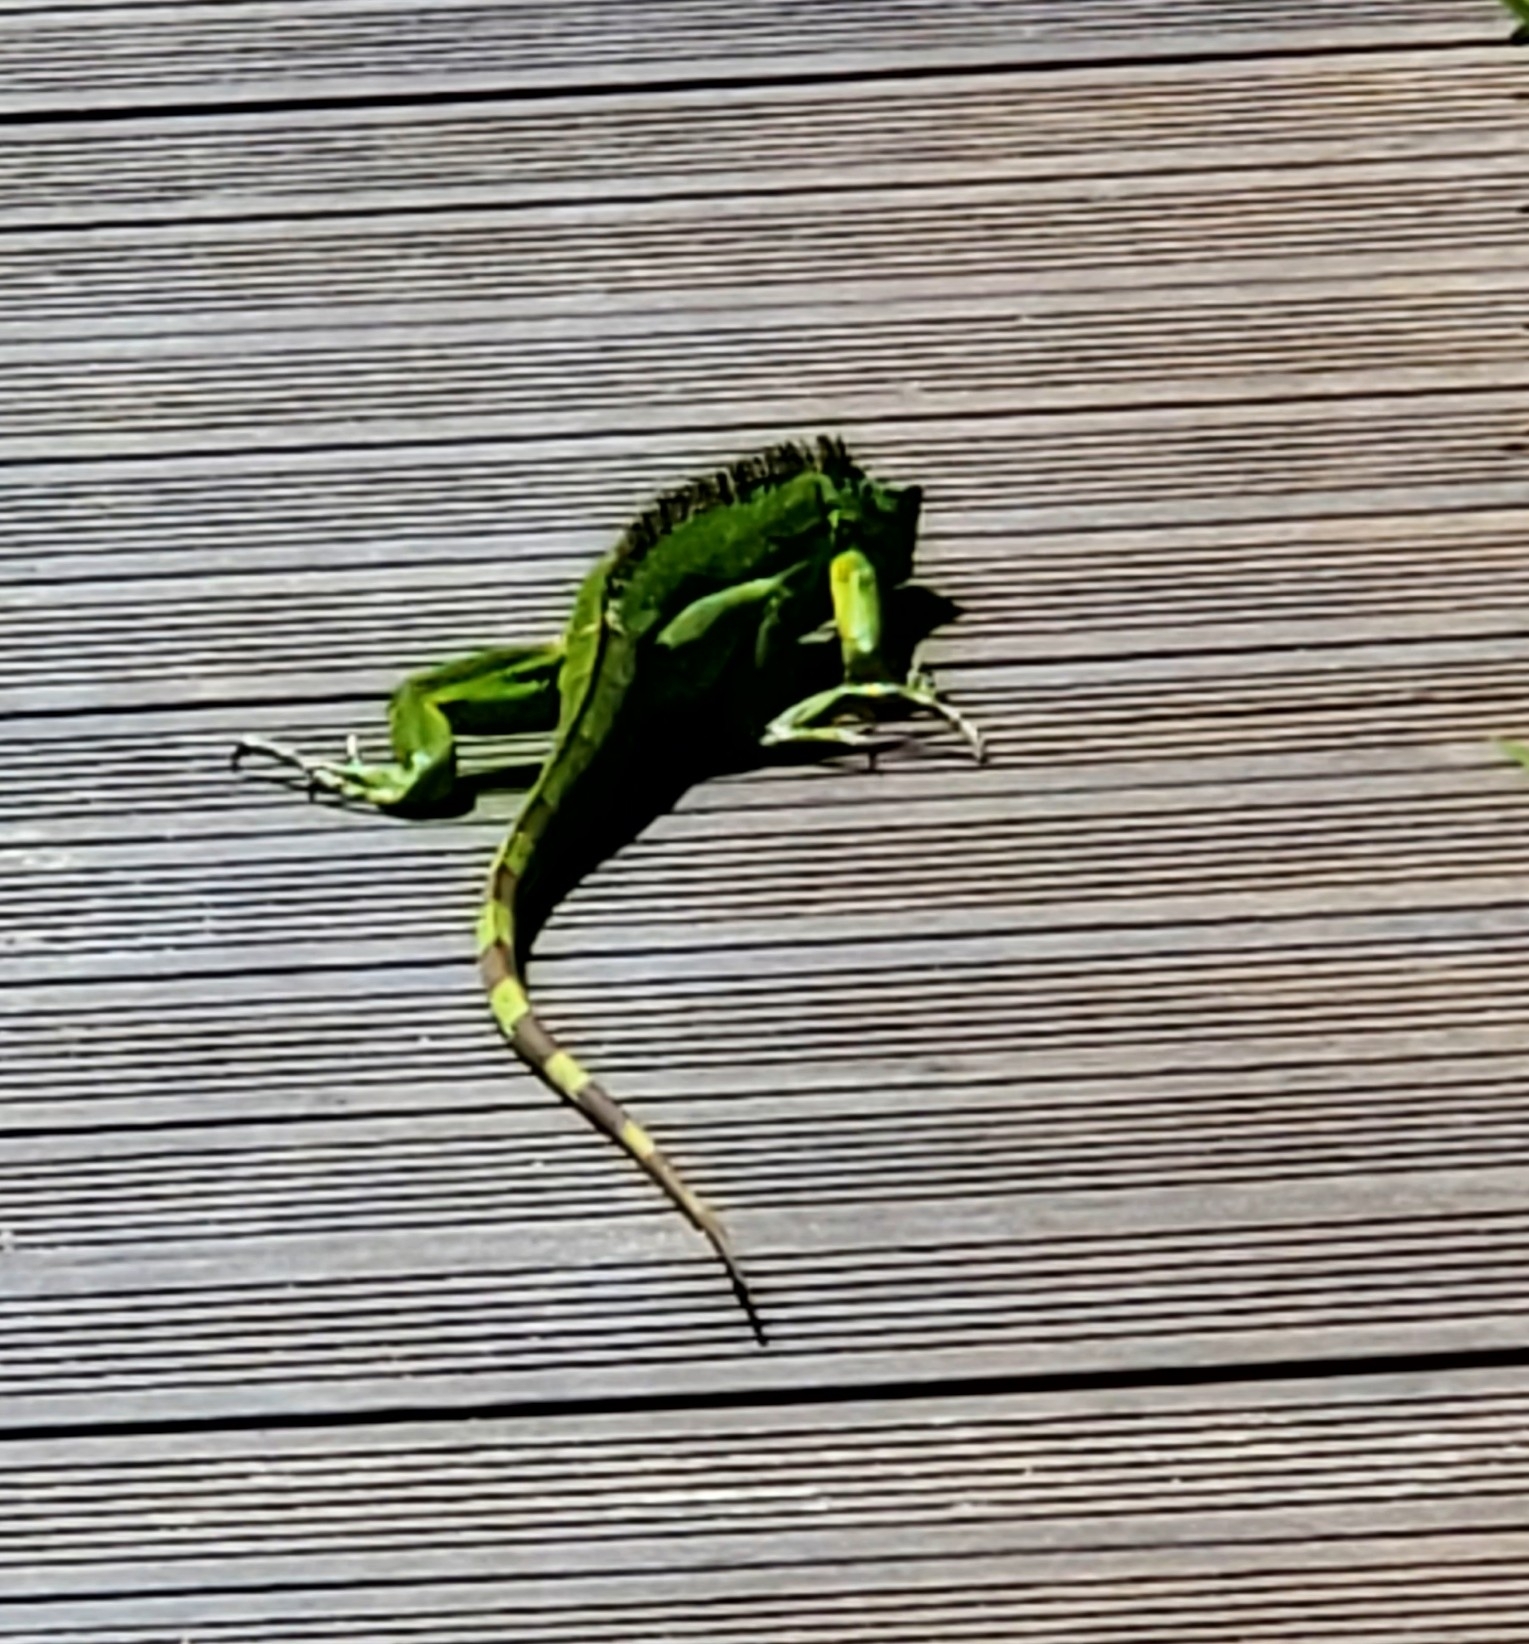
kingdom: Animalia
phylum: Chordata
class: Squamata
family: Iguanidae
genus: Iguana
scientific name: Iguana iguana
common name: Green iguana
